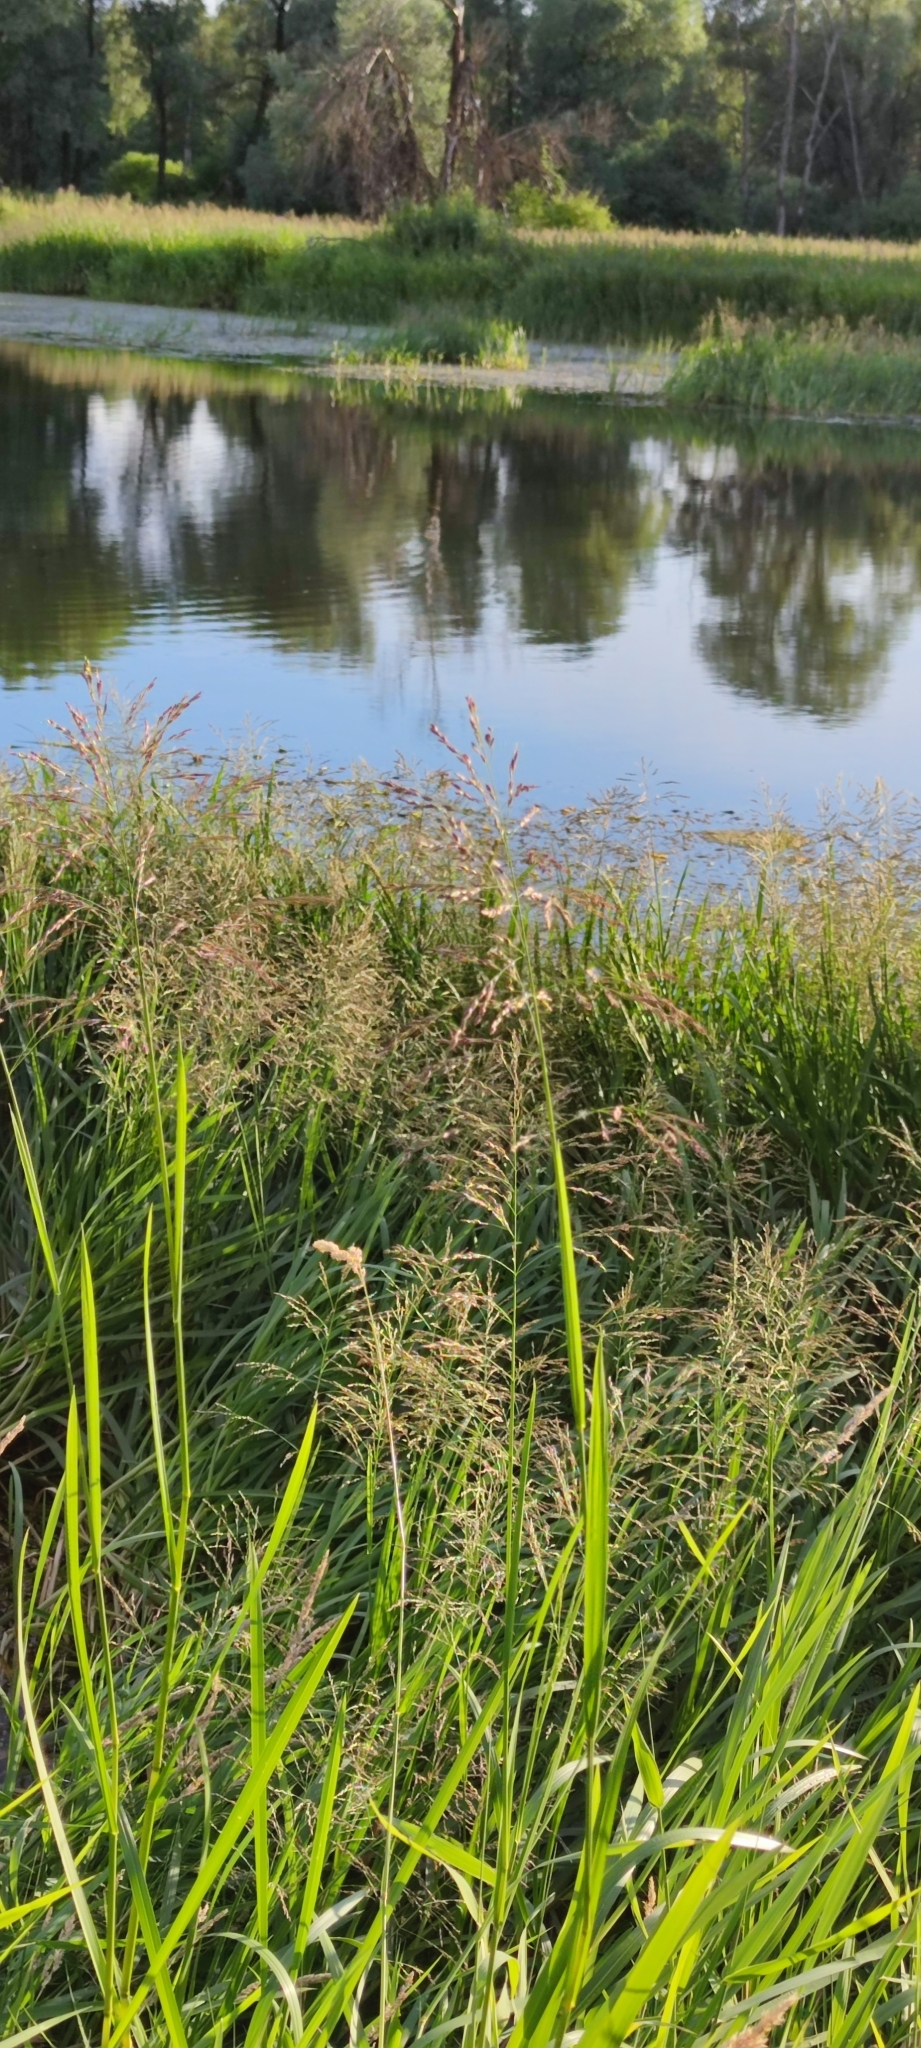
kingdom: Plantae
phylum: Tracheophyta
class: Liliopsida
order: Poales
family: Poaceae
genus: Glyceria
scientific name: Glyceria maxima
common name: Reed mannagrass
